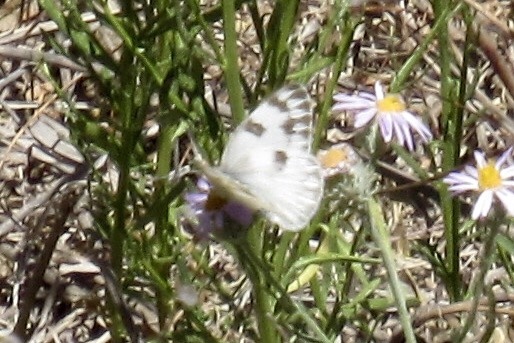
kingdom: Animalia
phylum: Arthropoda
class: Insecta
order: Lepidoptera
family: Pieridae
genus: Pontia
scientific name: Pontia protodice
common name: Checkered white
